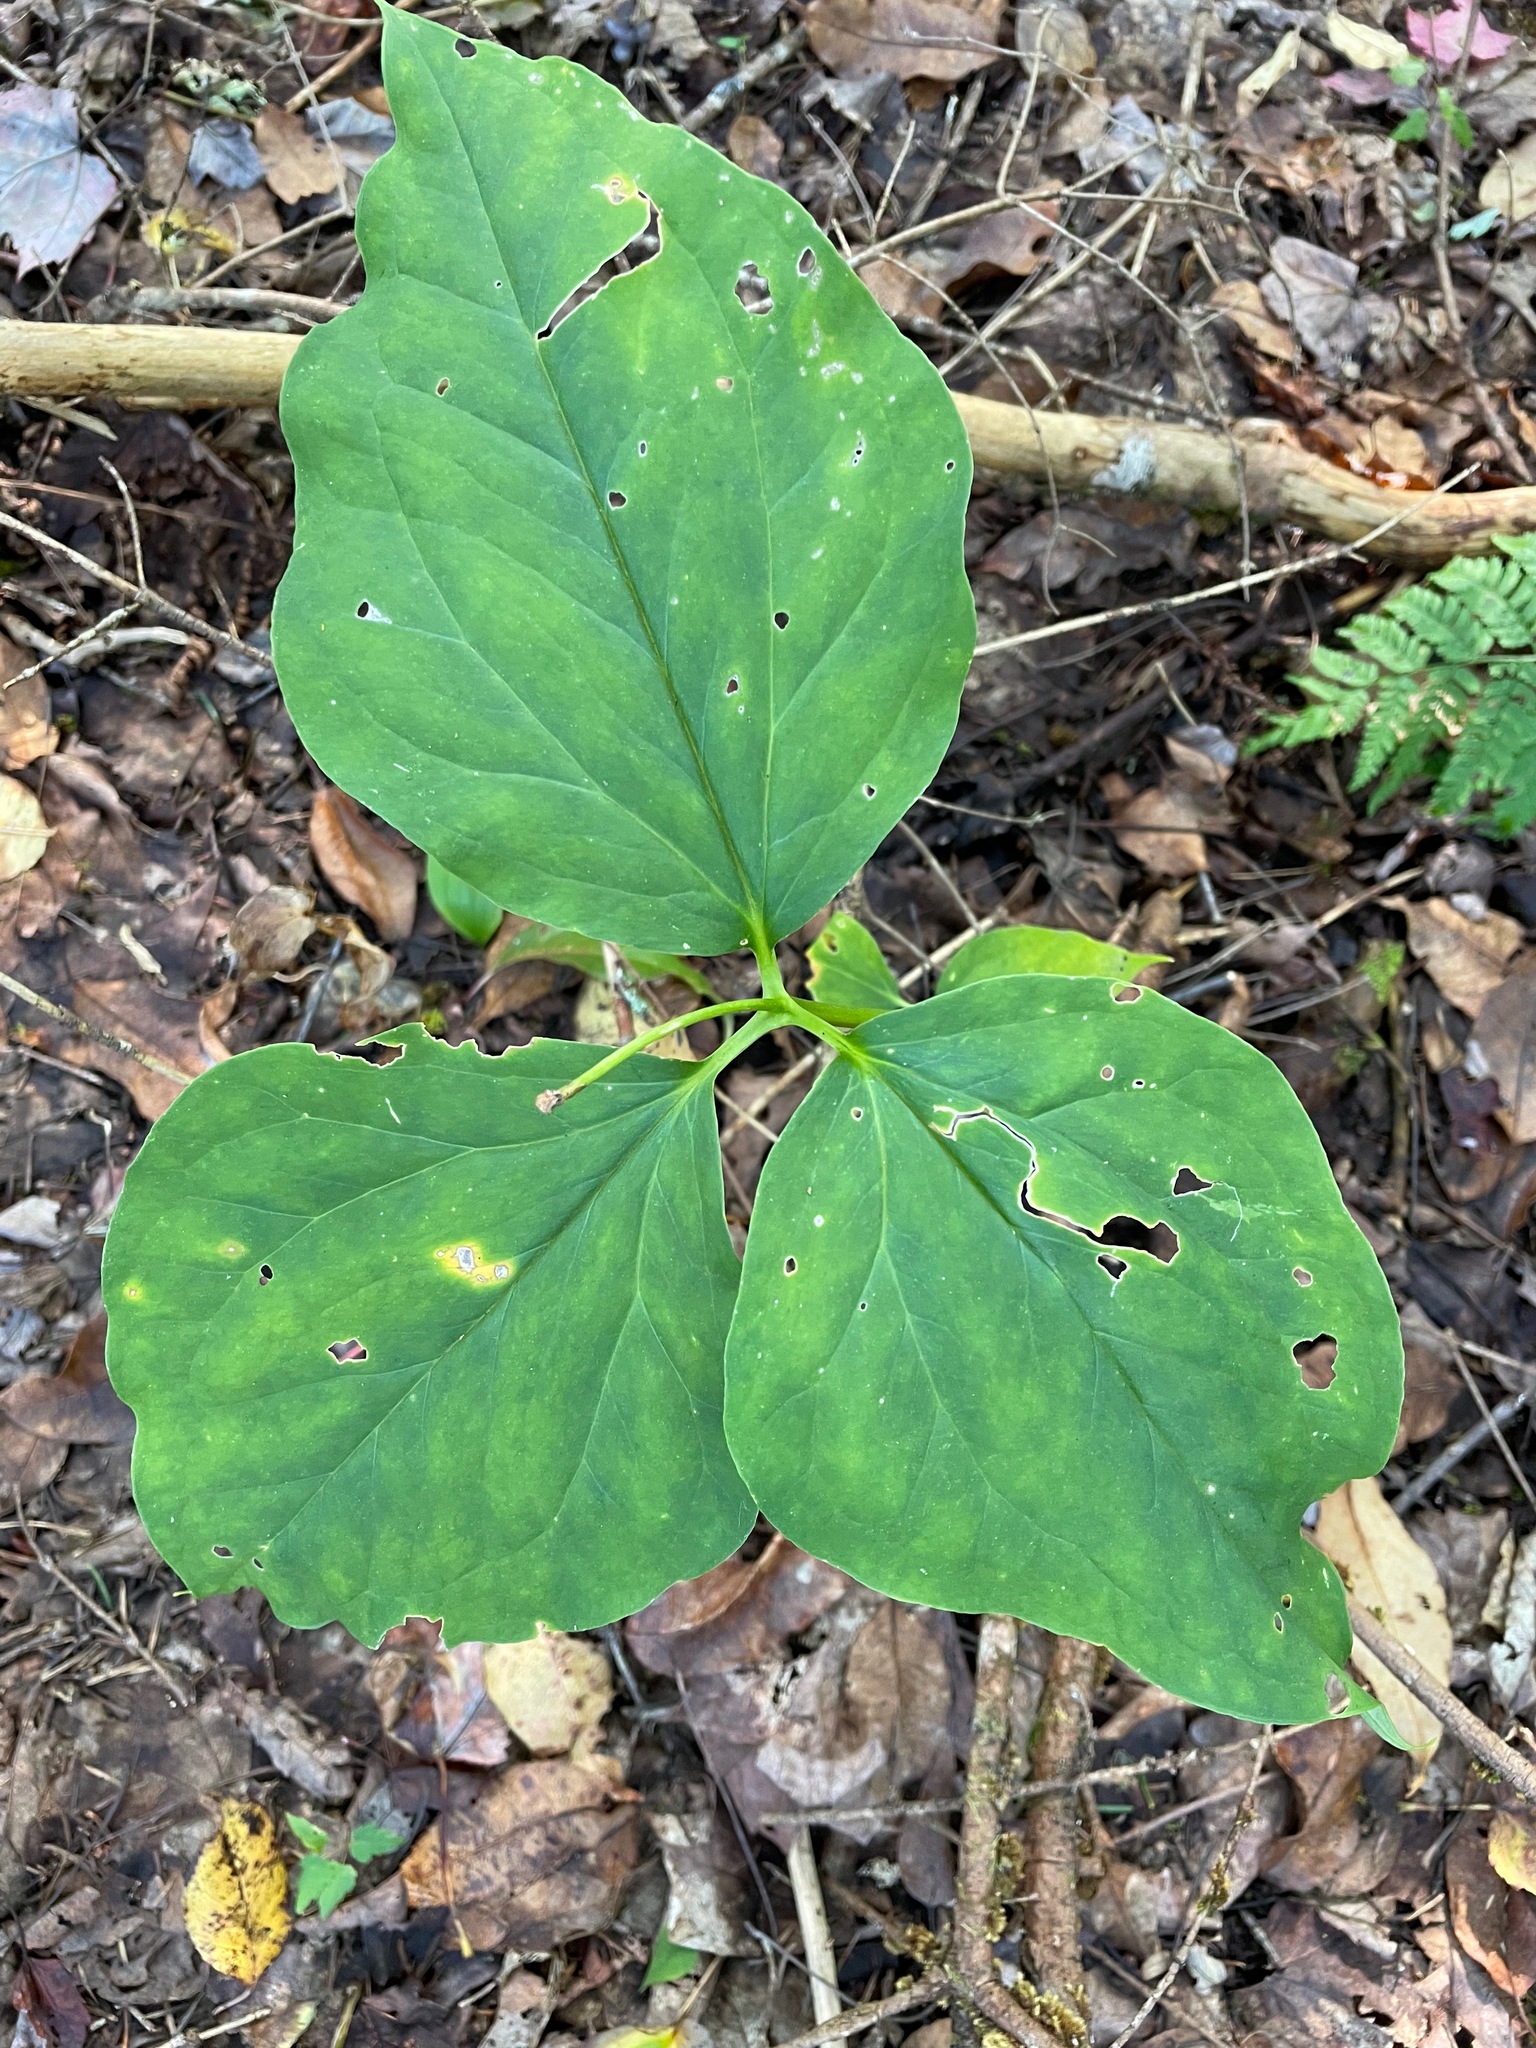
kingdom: Plantae
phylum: Tracheophyta
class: Liliopsida
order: Liliales
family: Melanthiaceae
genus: Trillium
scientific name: Trillium undulatum
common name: Paint trillium
